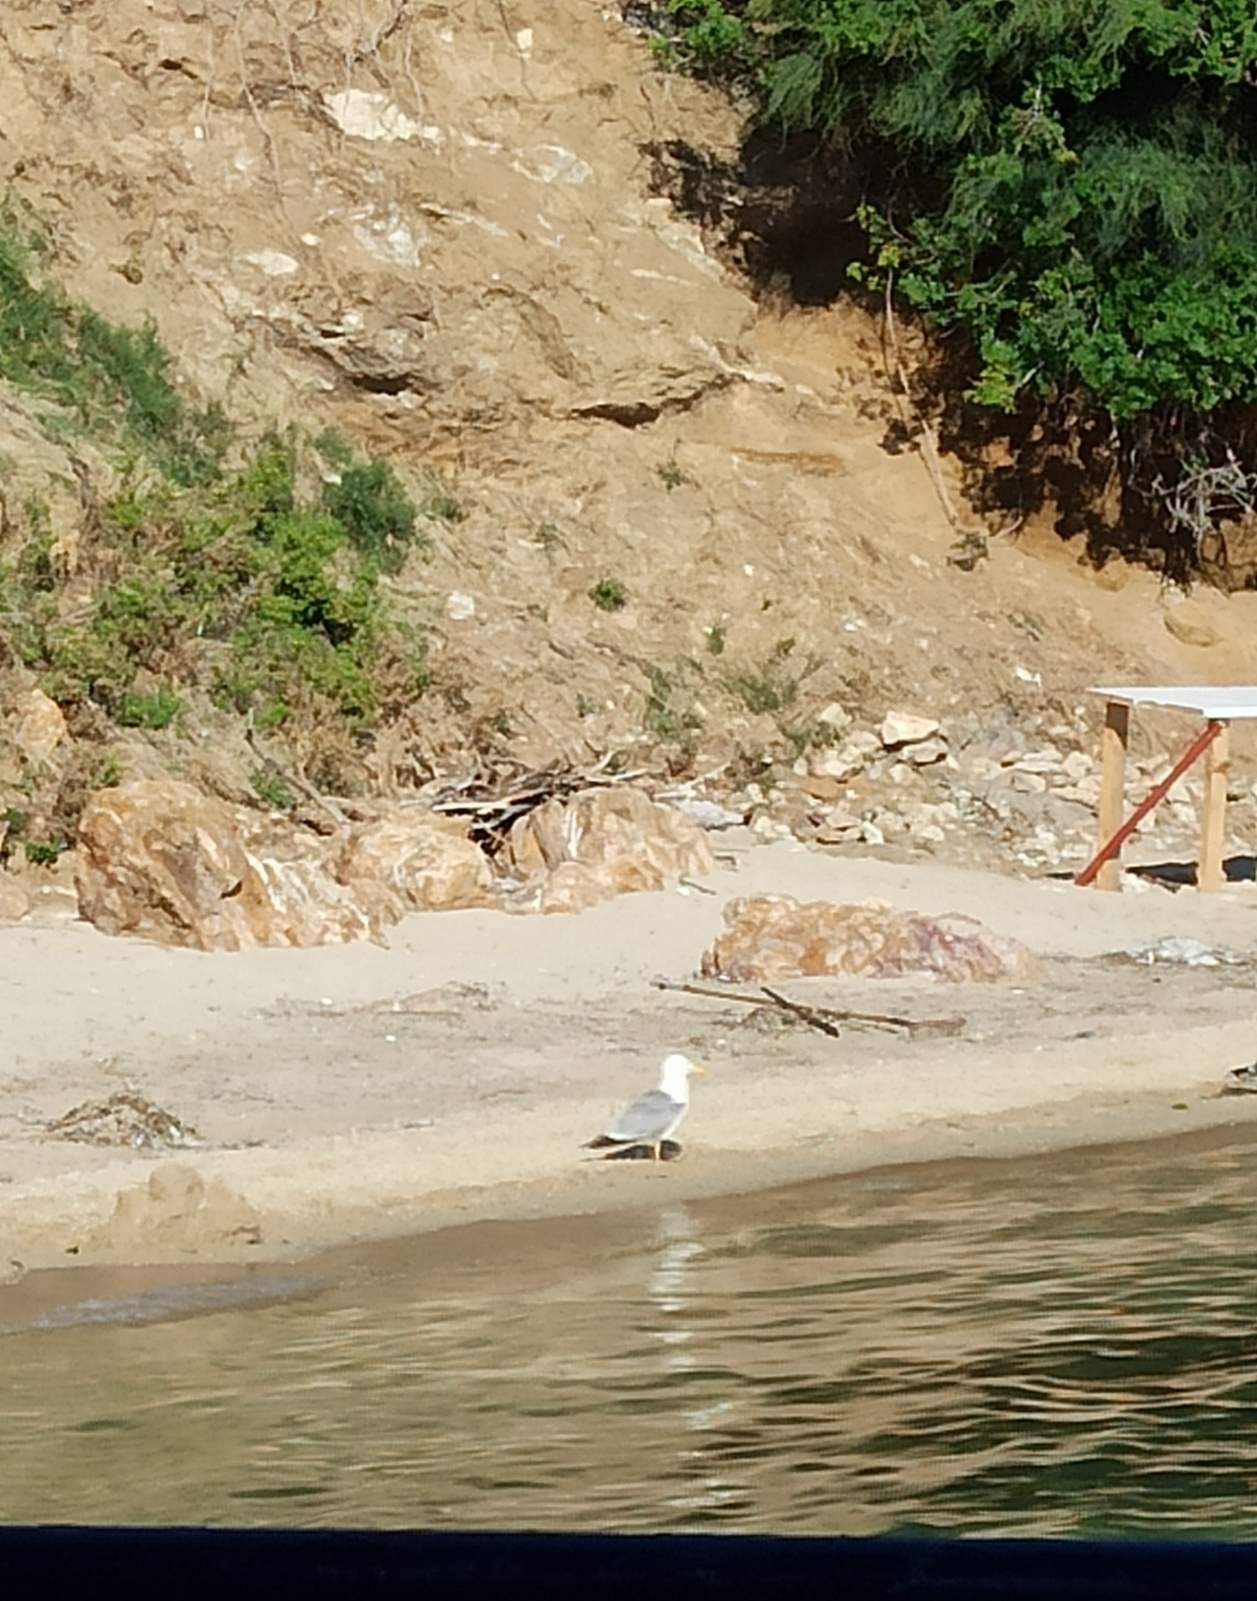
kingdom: Animalia
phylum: Chordata
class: Aves
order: Charadriiformes
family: Laridae
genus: Larus
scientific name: Larus michahellis
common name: Yellow-legged gull
